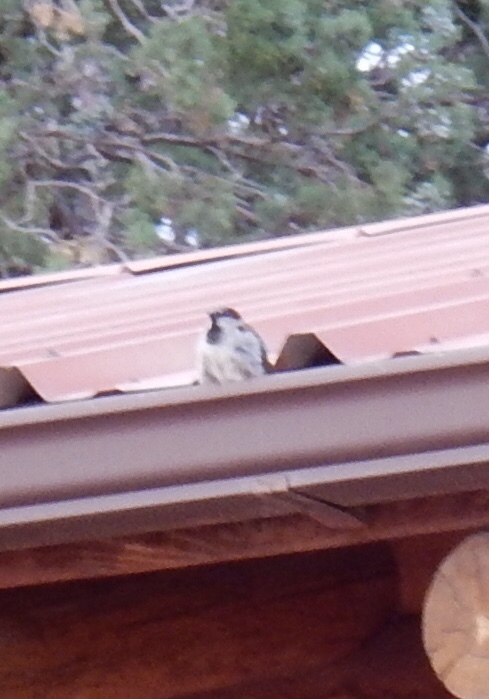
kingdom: Animalia
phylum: Chordata
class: Aves
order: Passeriformes
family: Passeridae
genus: Passer
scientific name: Passer domesticus
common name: House sparrow
